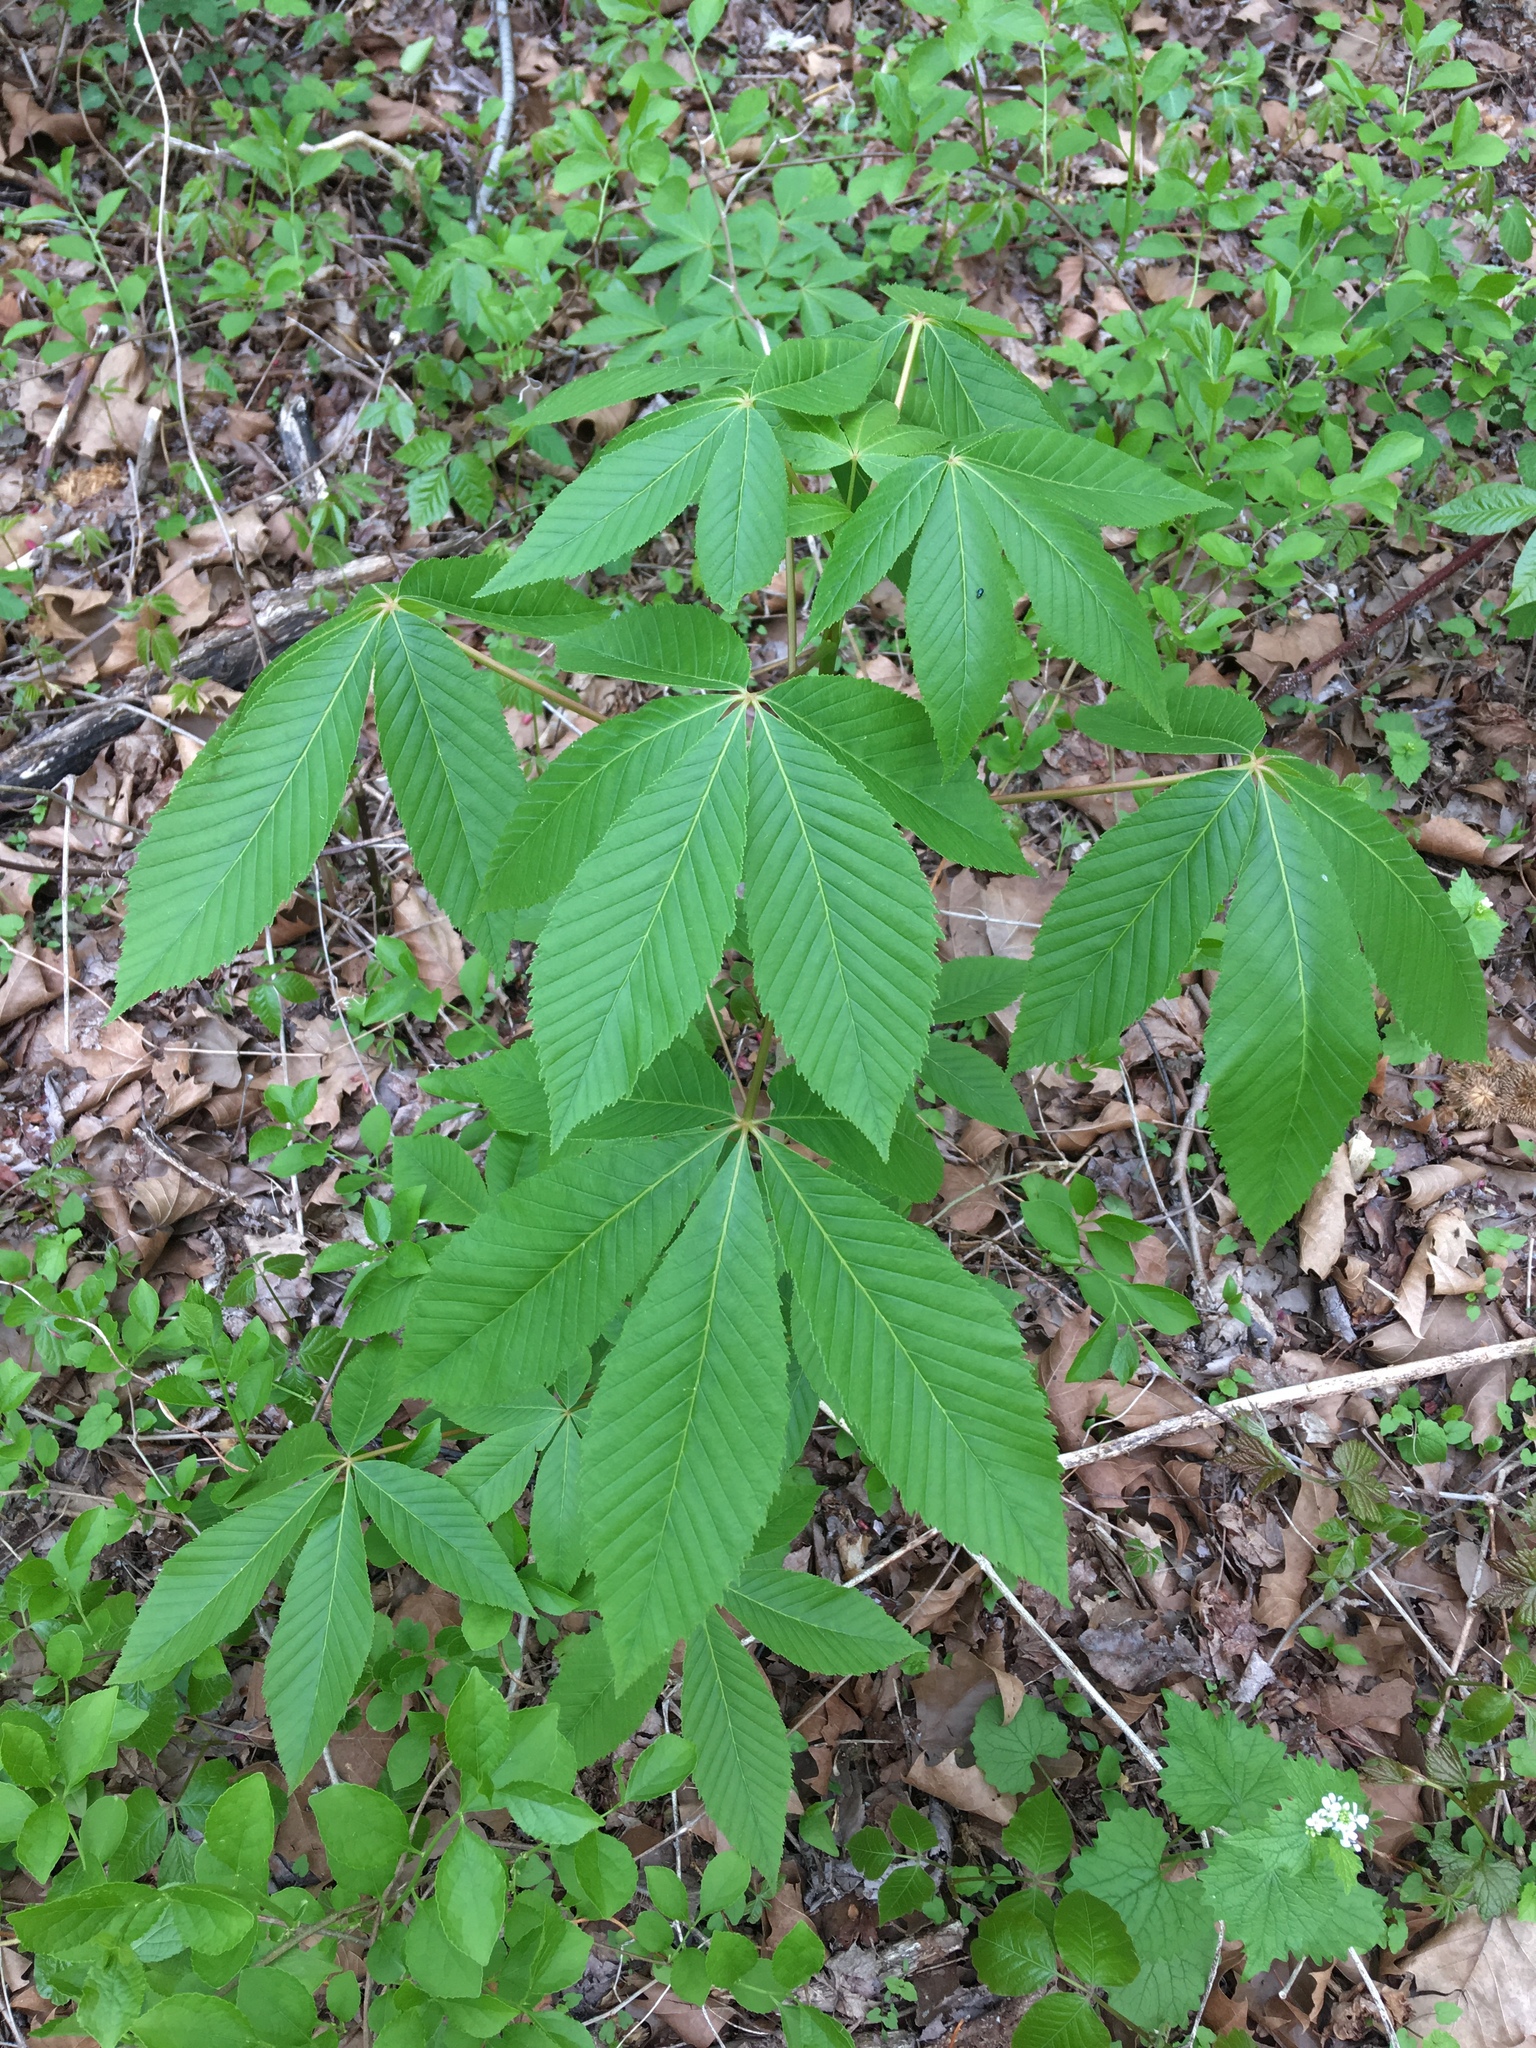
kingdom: Plantae
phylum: Tracheophyta
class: Magnoliopsida
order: Sapindales
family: Sapindaceae
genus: Aesculus
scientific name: Aesculus glabra
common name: Ohio buckeye
